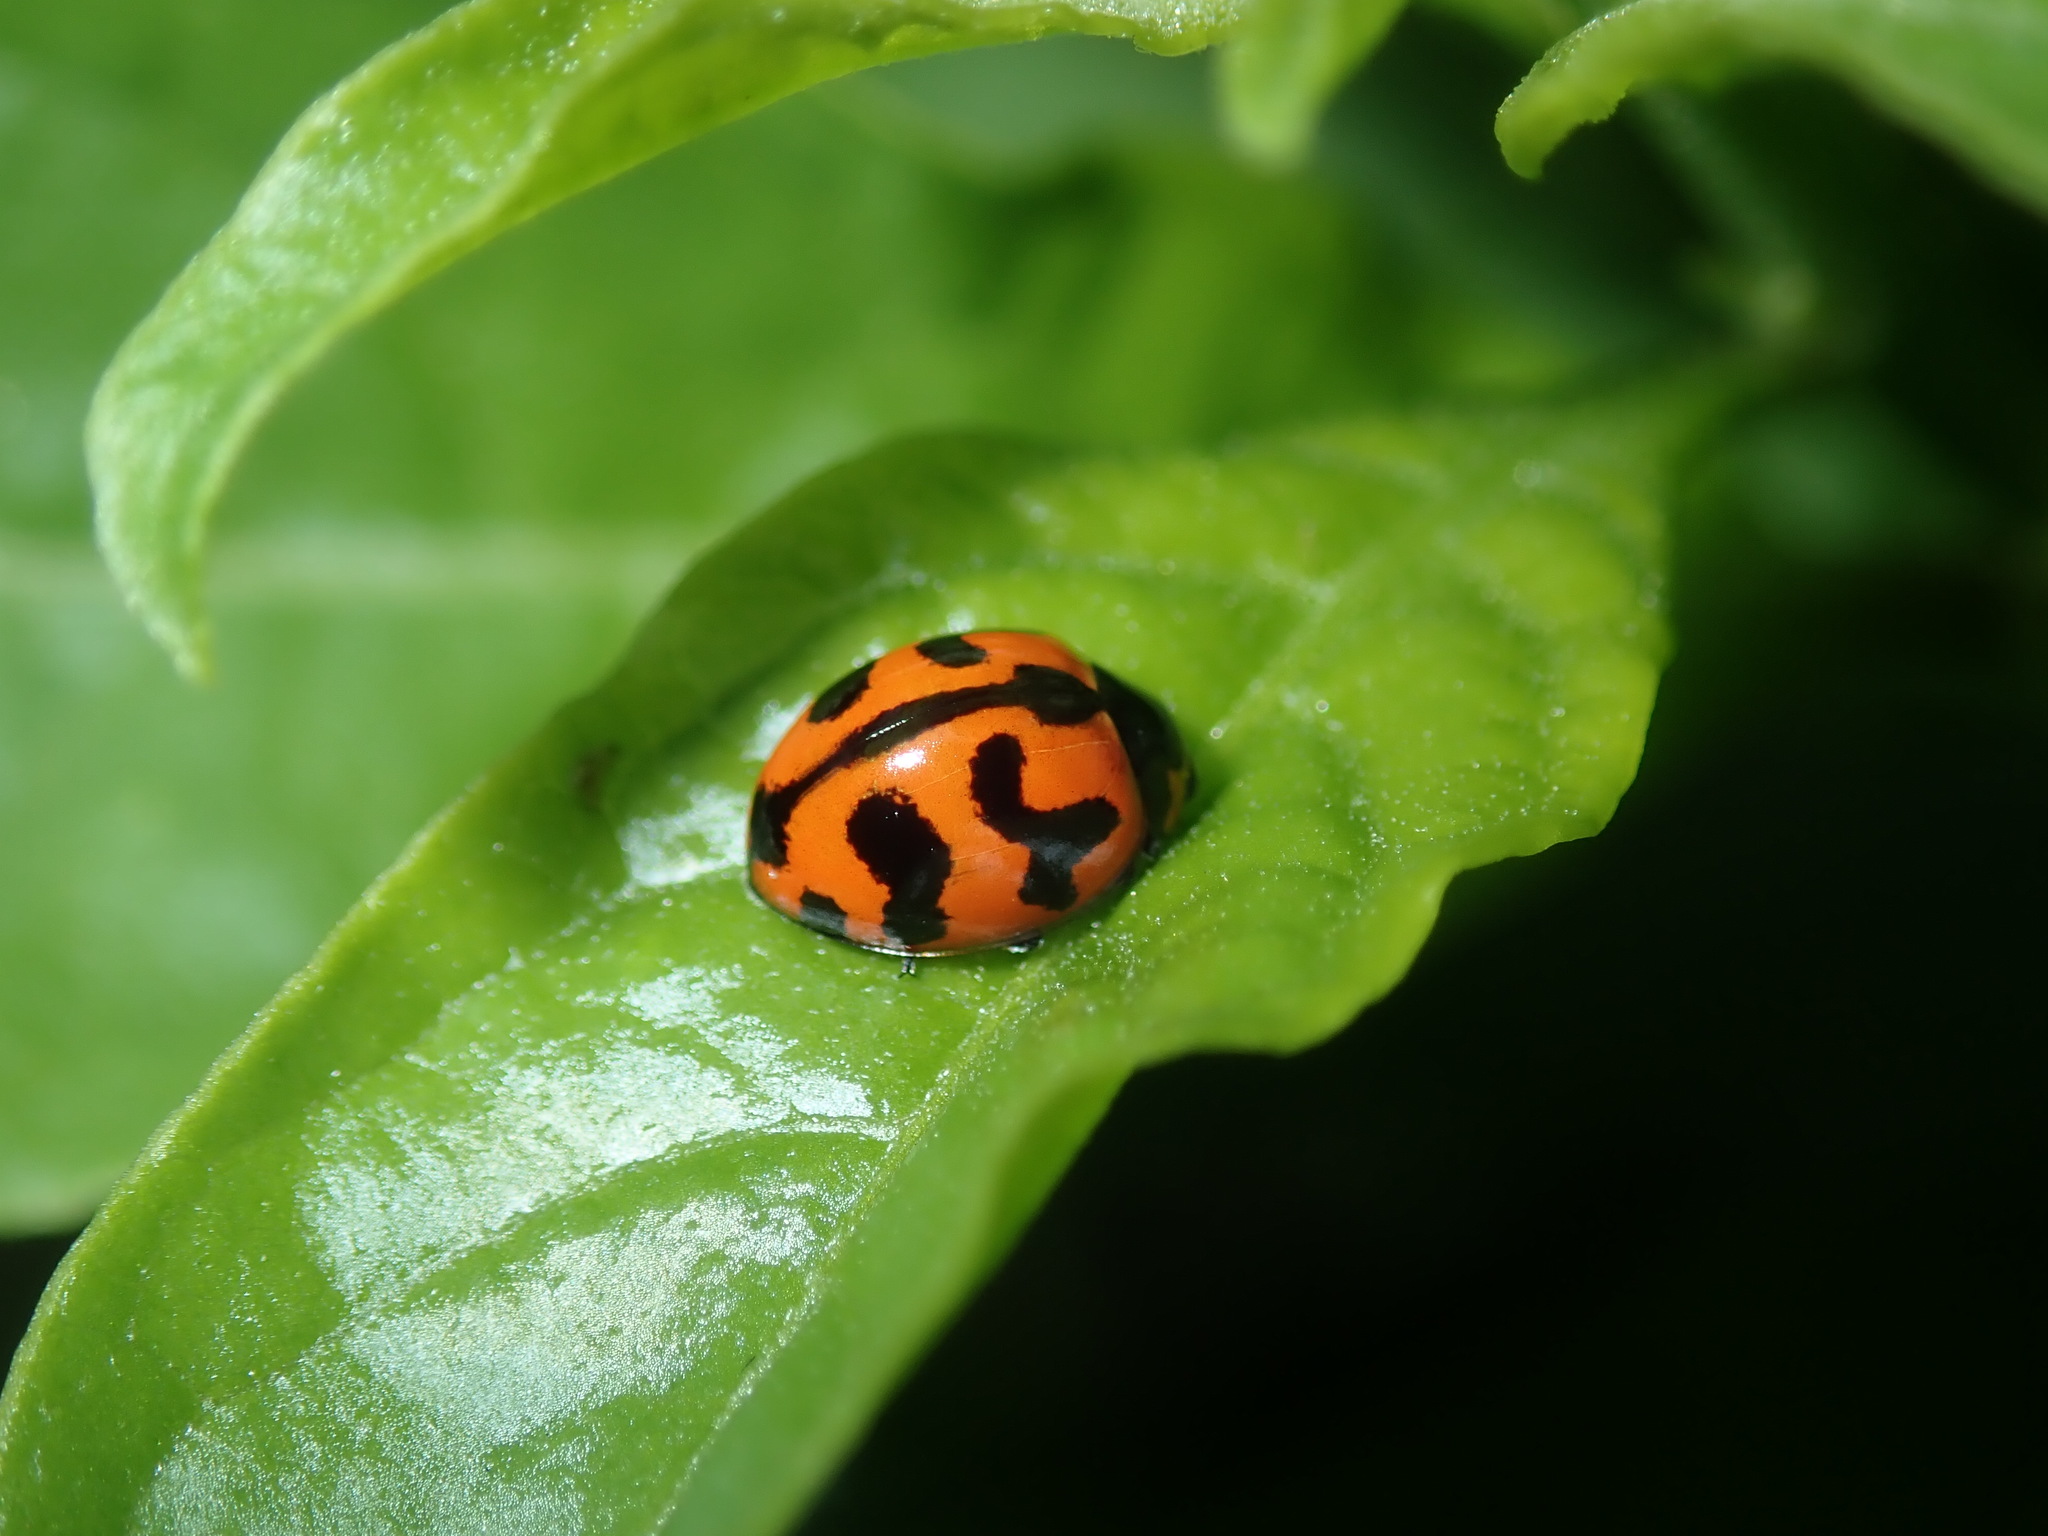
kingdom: Animalia
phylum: Arthropoda
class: Insecta
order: Coleoptera
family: Coccinellidae
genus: Coccinella
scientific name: Coccinella transversalis
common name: Transverse lady beetle
